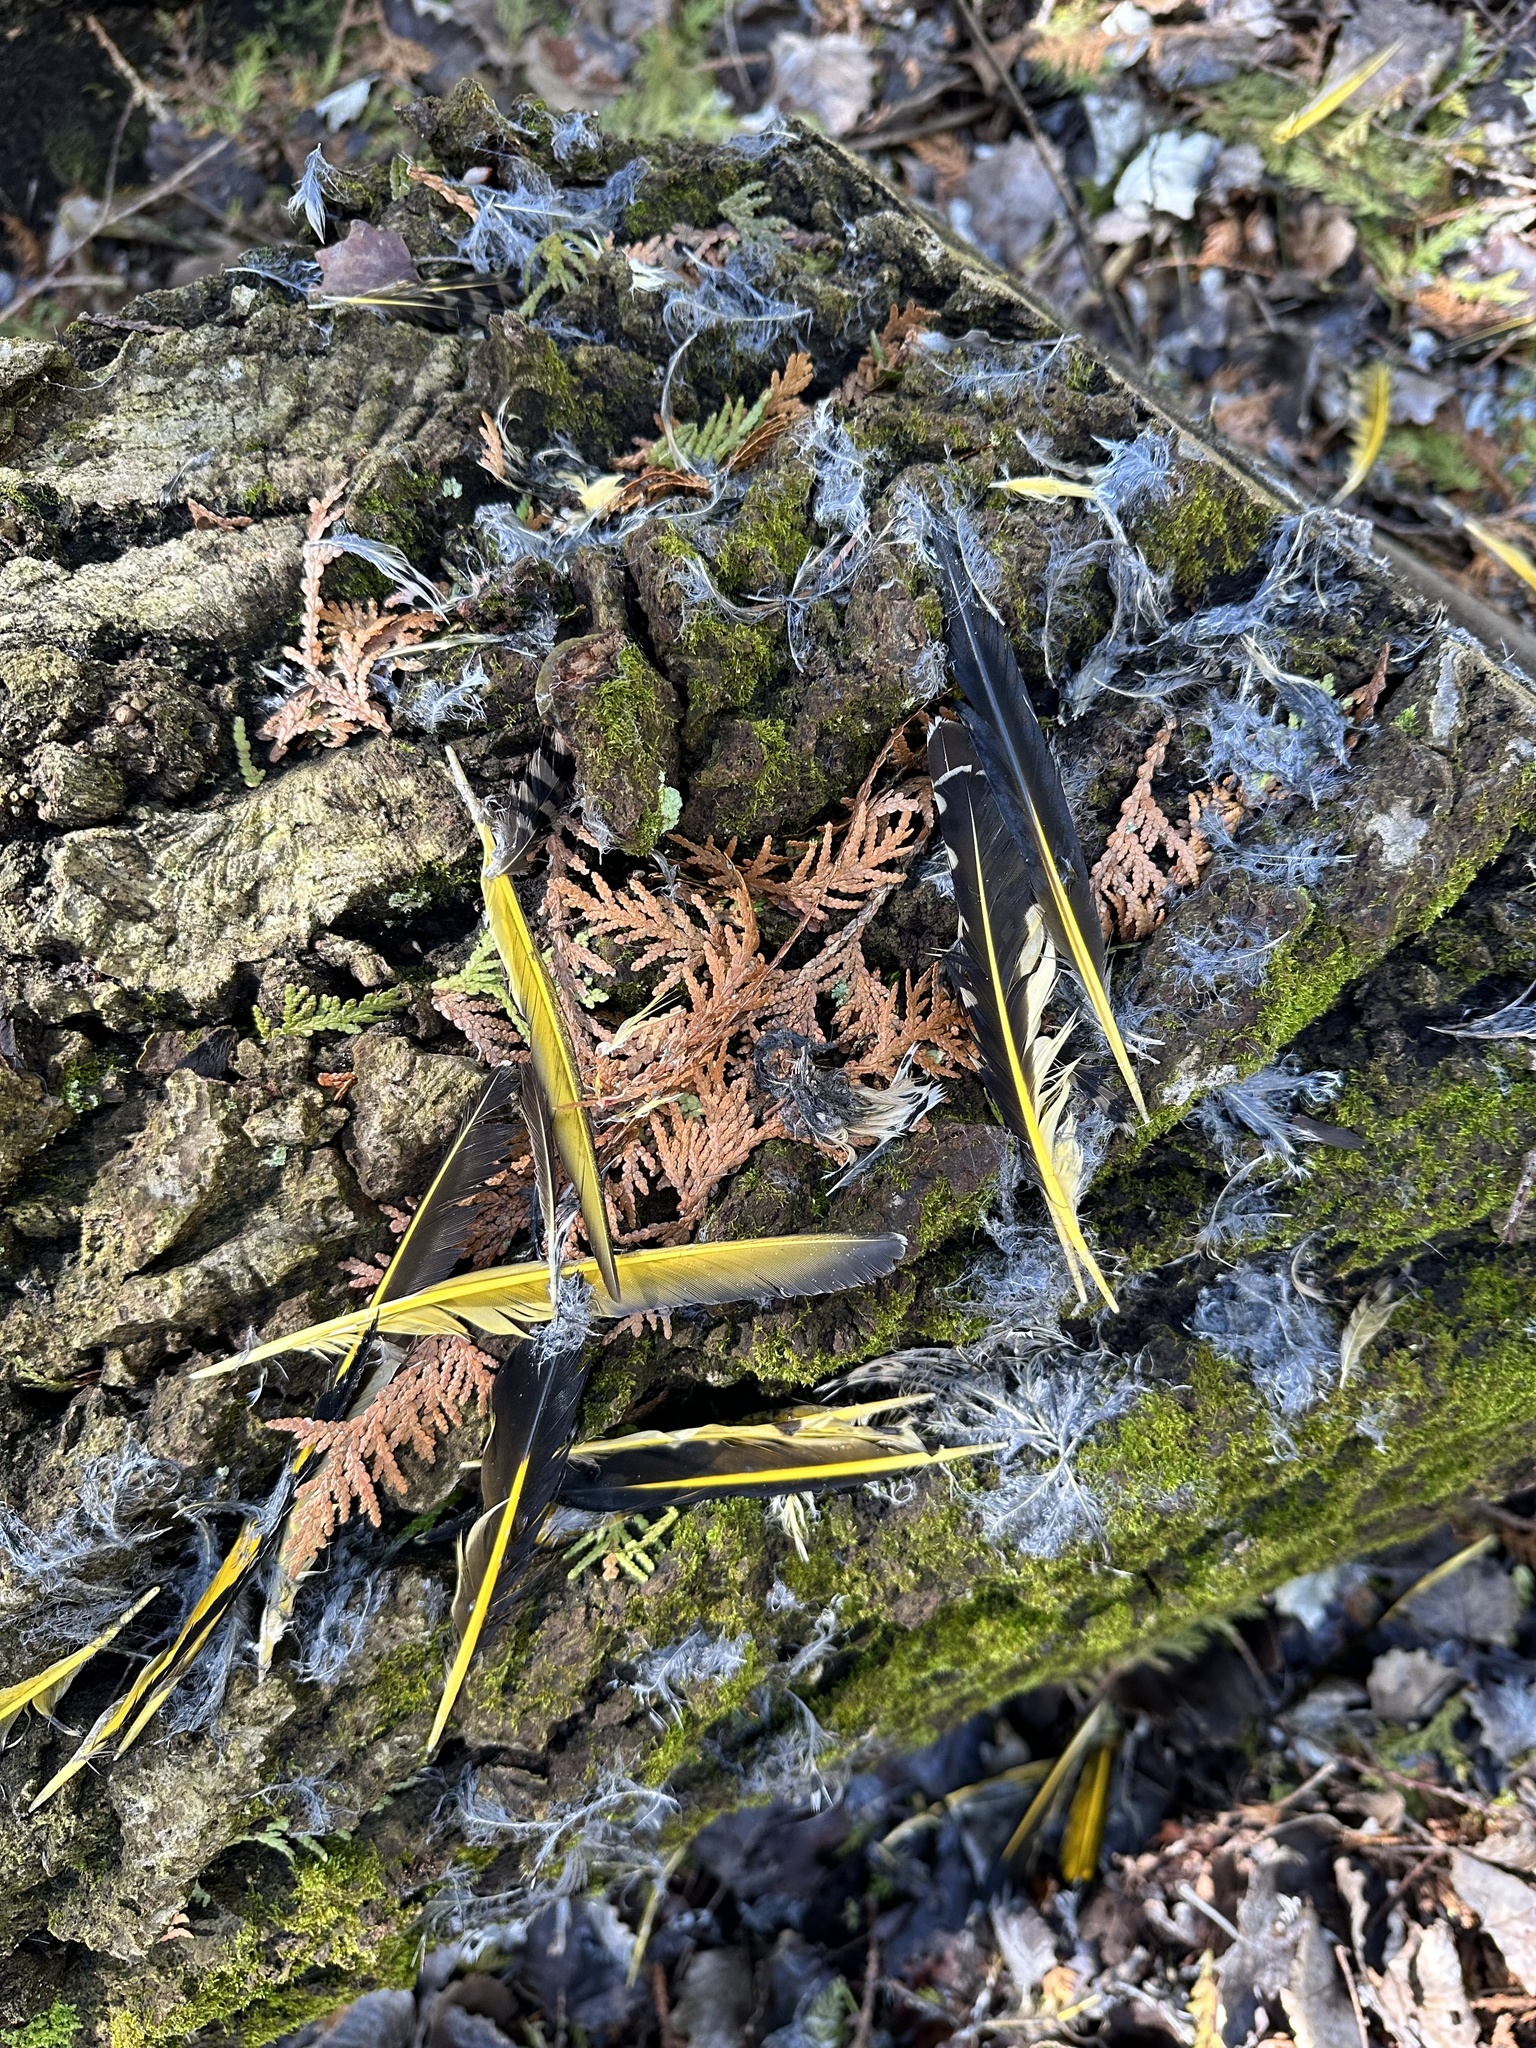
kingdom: Animalia
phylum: Chordata
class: Aves
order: Piciformes
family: Picidae
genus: Colaptes
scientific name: Colaptes auratus
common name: Northern flicker
